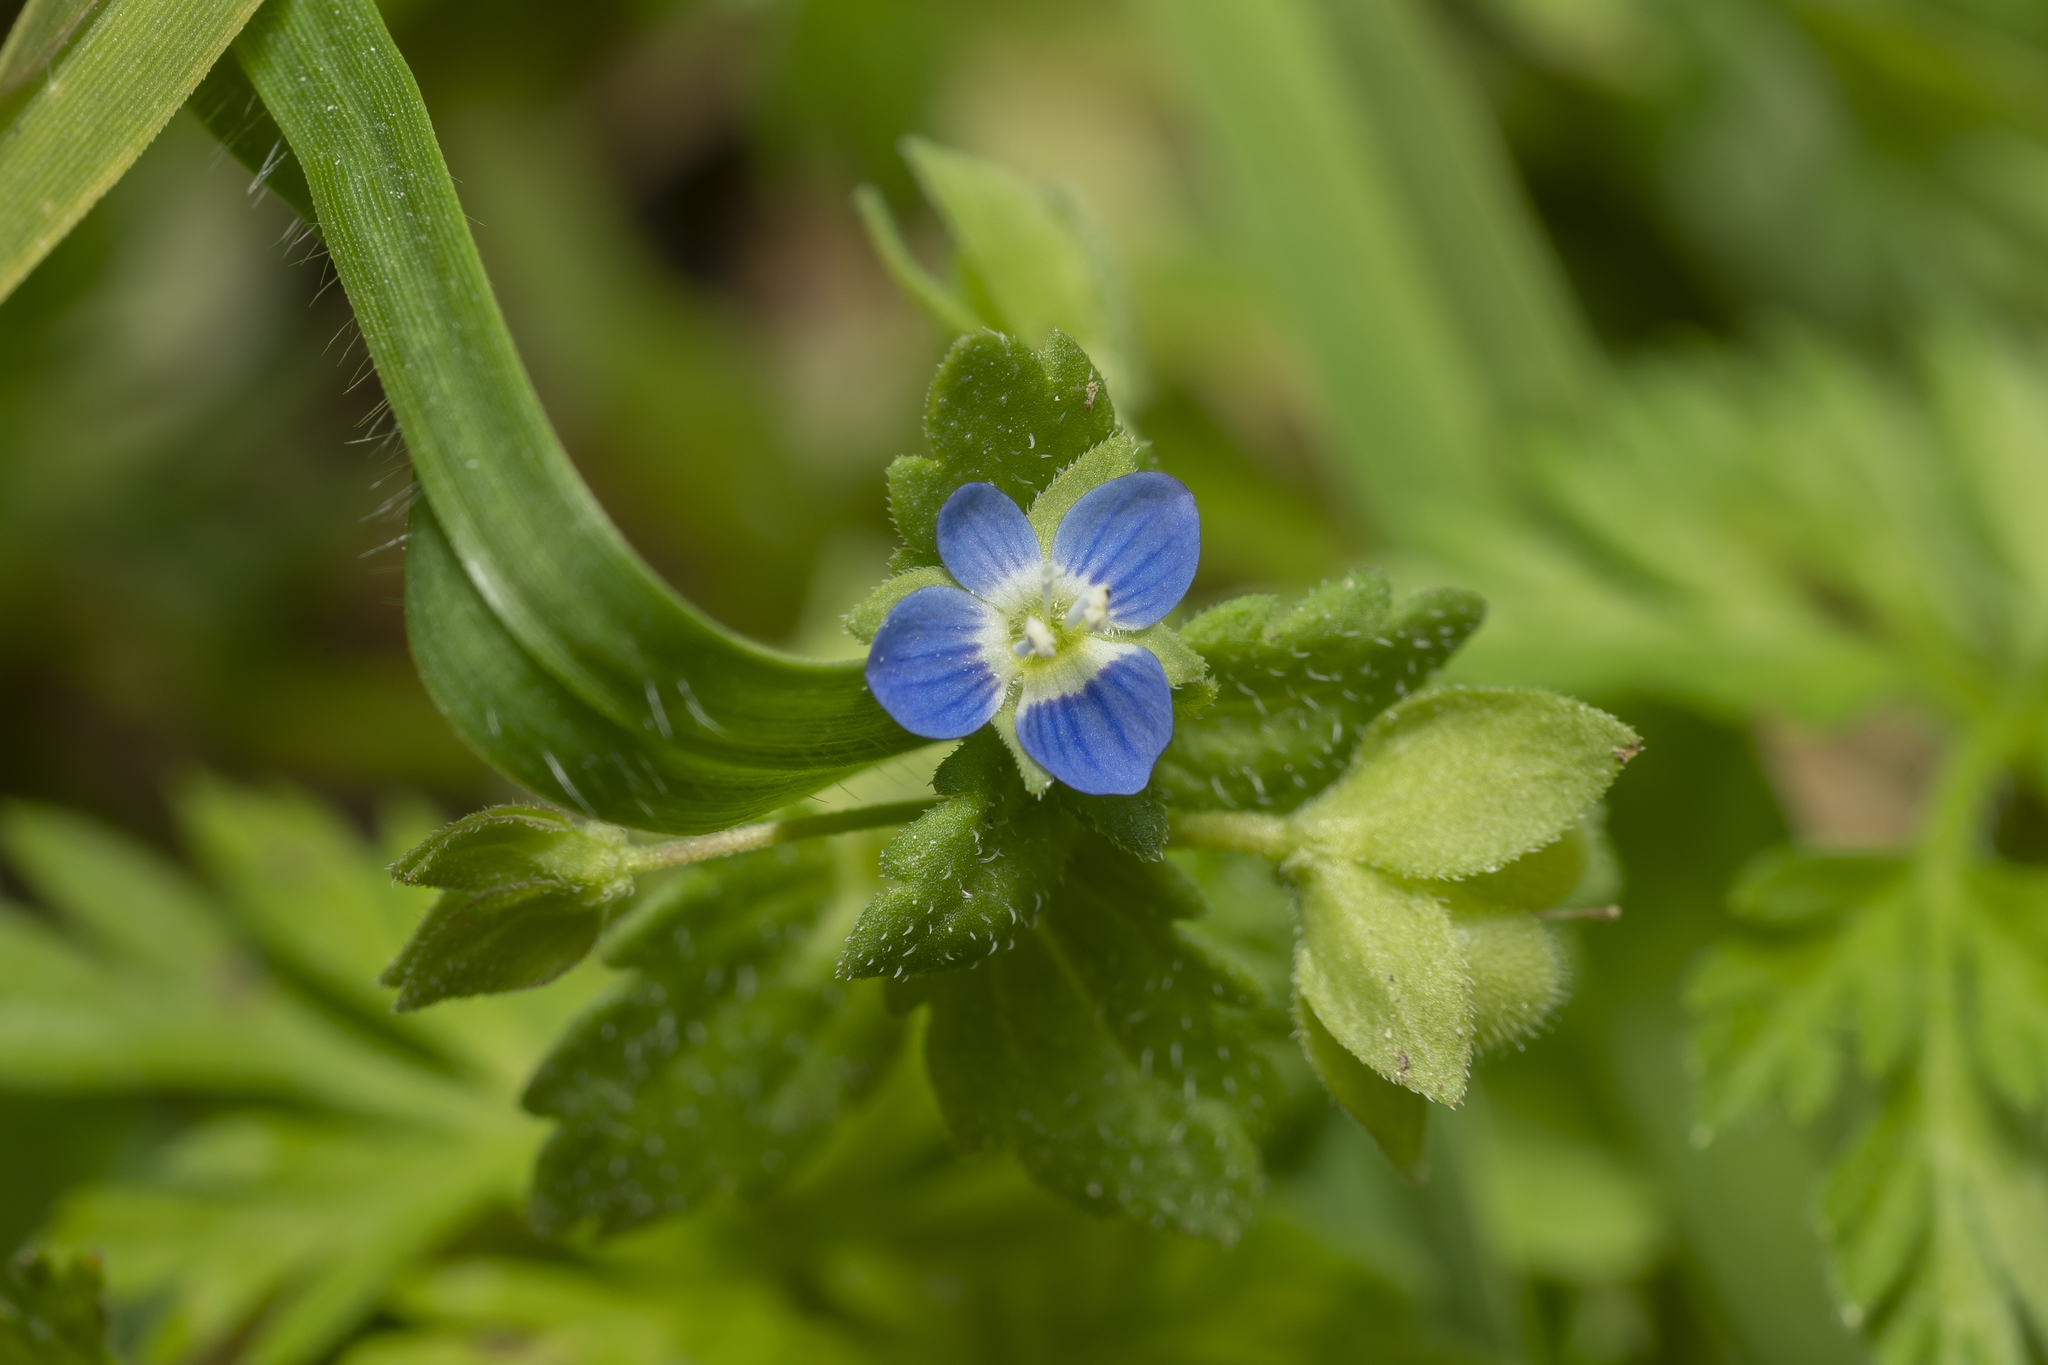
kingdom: Plantae
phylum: Tracheophyta
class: Magnoliopsida
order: Lamiales
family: Plantaginaceae
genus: Veronica
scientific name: Veronica polita
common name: Grey field-speedwell
